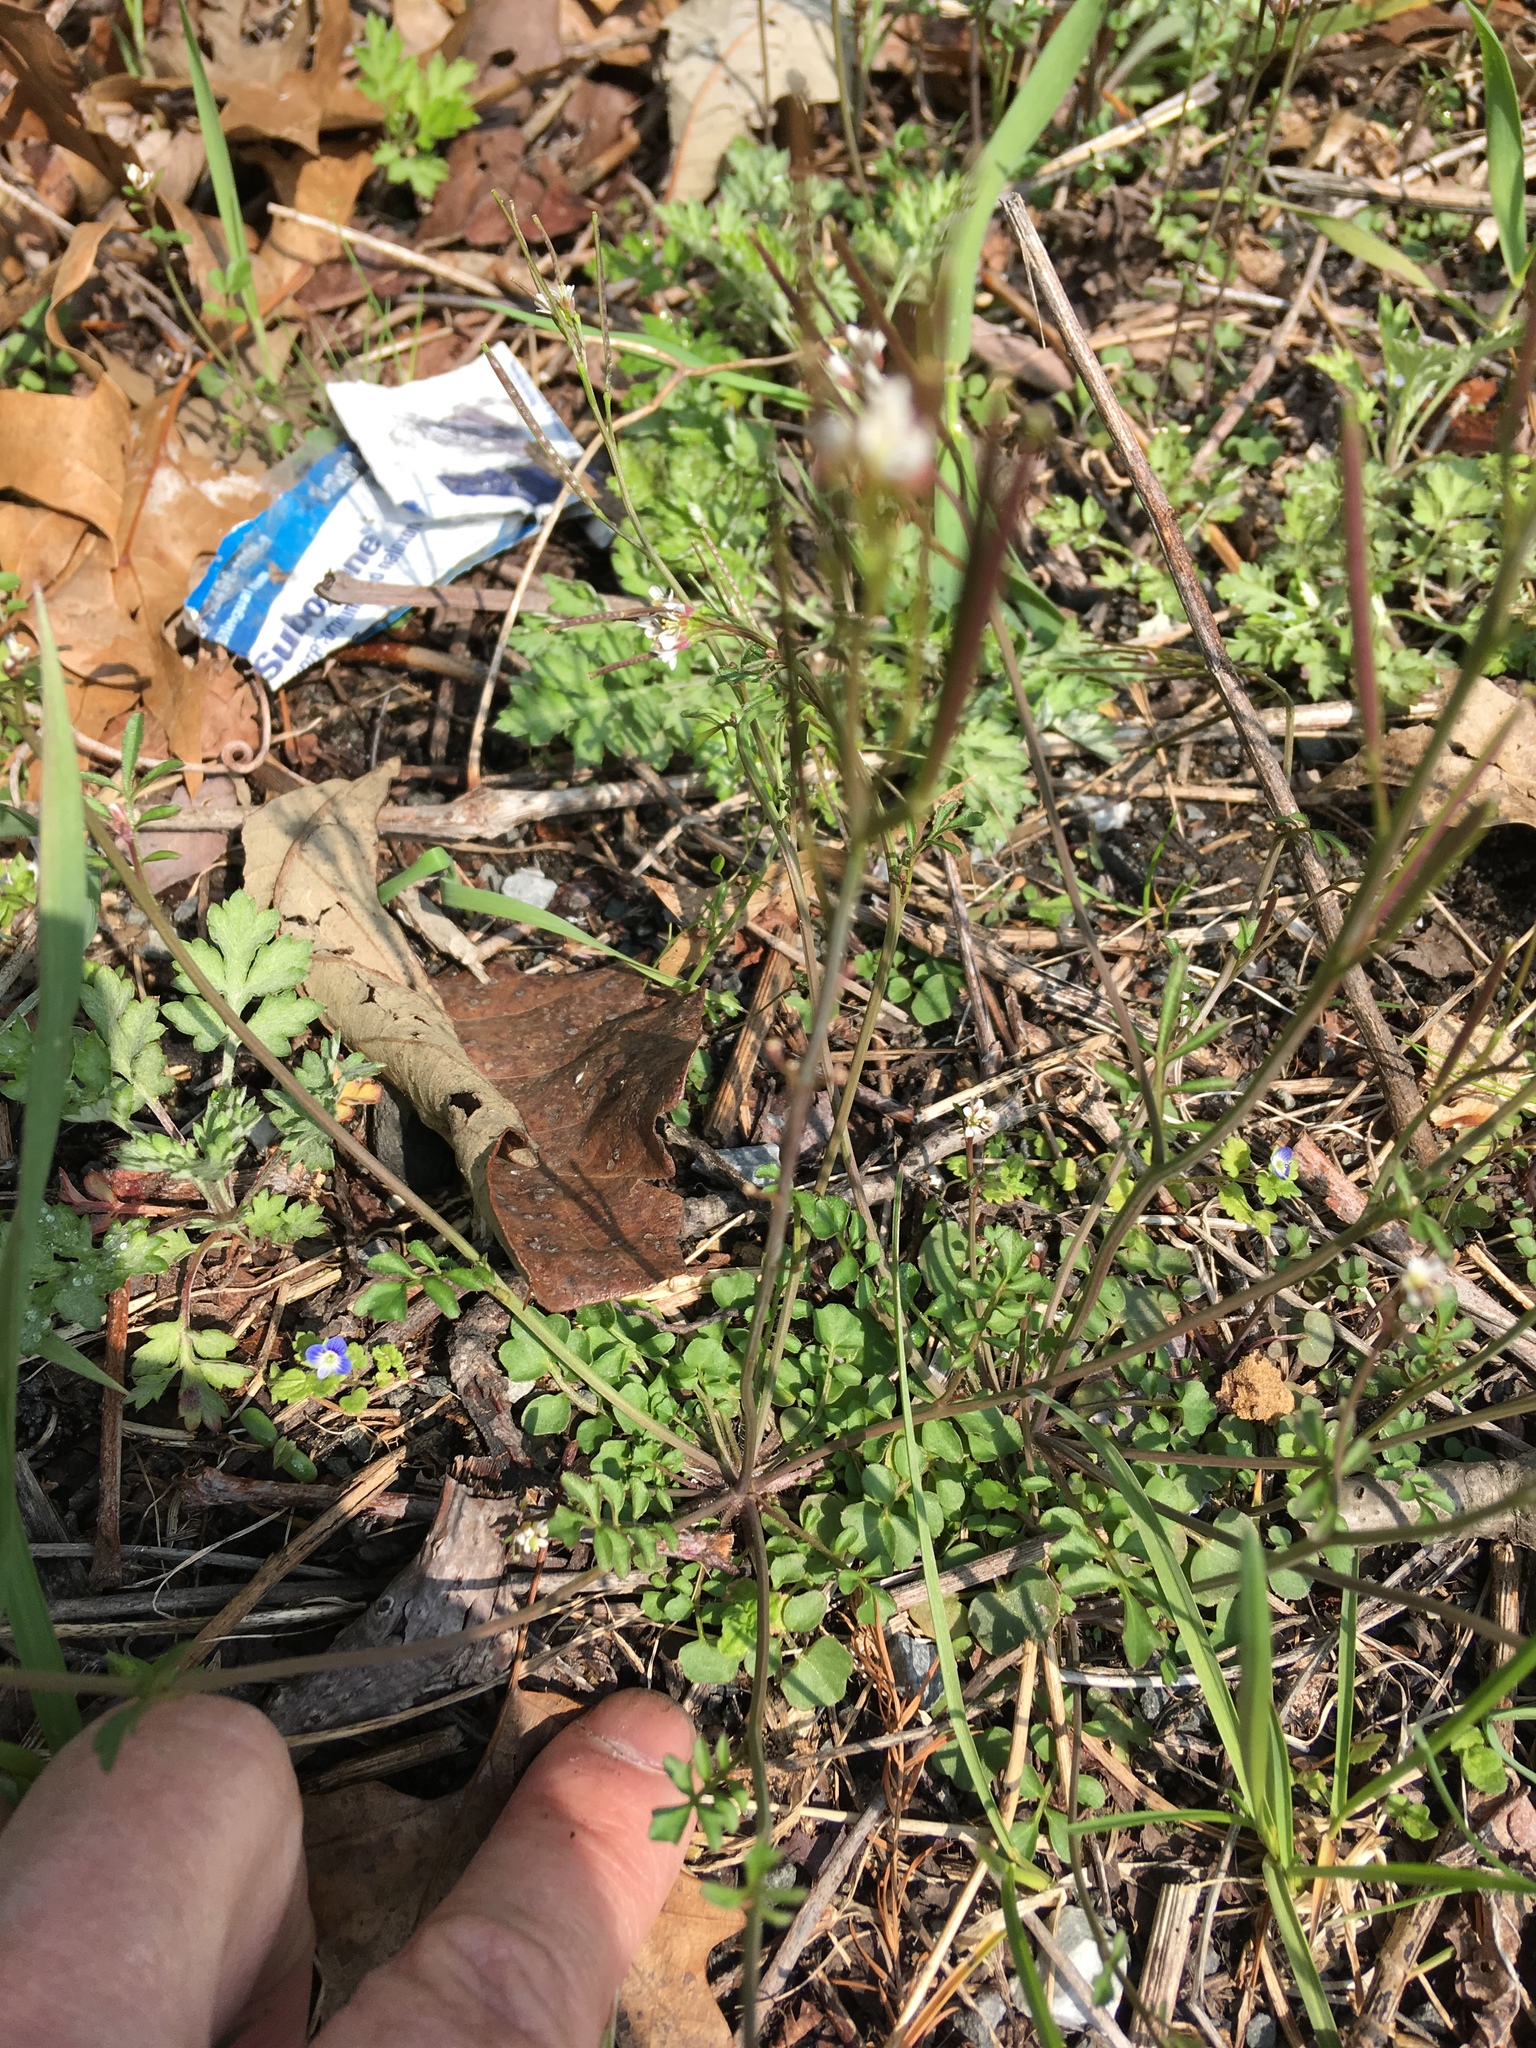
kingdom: Plantae
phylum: Tracheophyta
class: Magnoliopsida
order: Brassicales
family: Brassicaceae
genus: Cardamine
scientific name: Cardamine hirsuta
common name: Hairy bittercress
